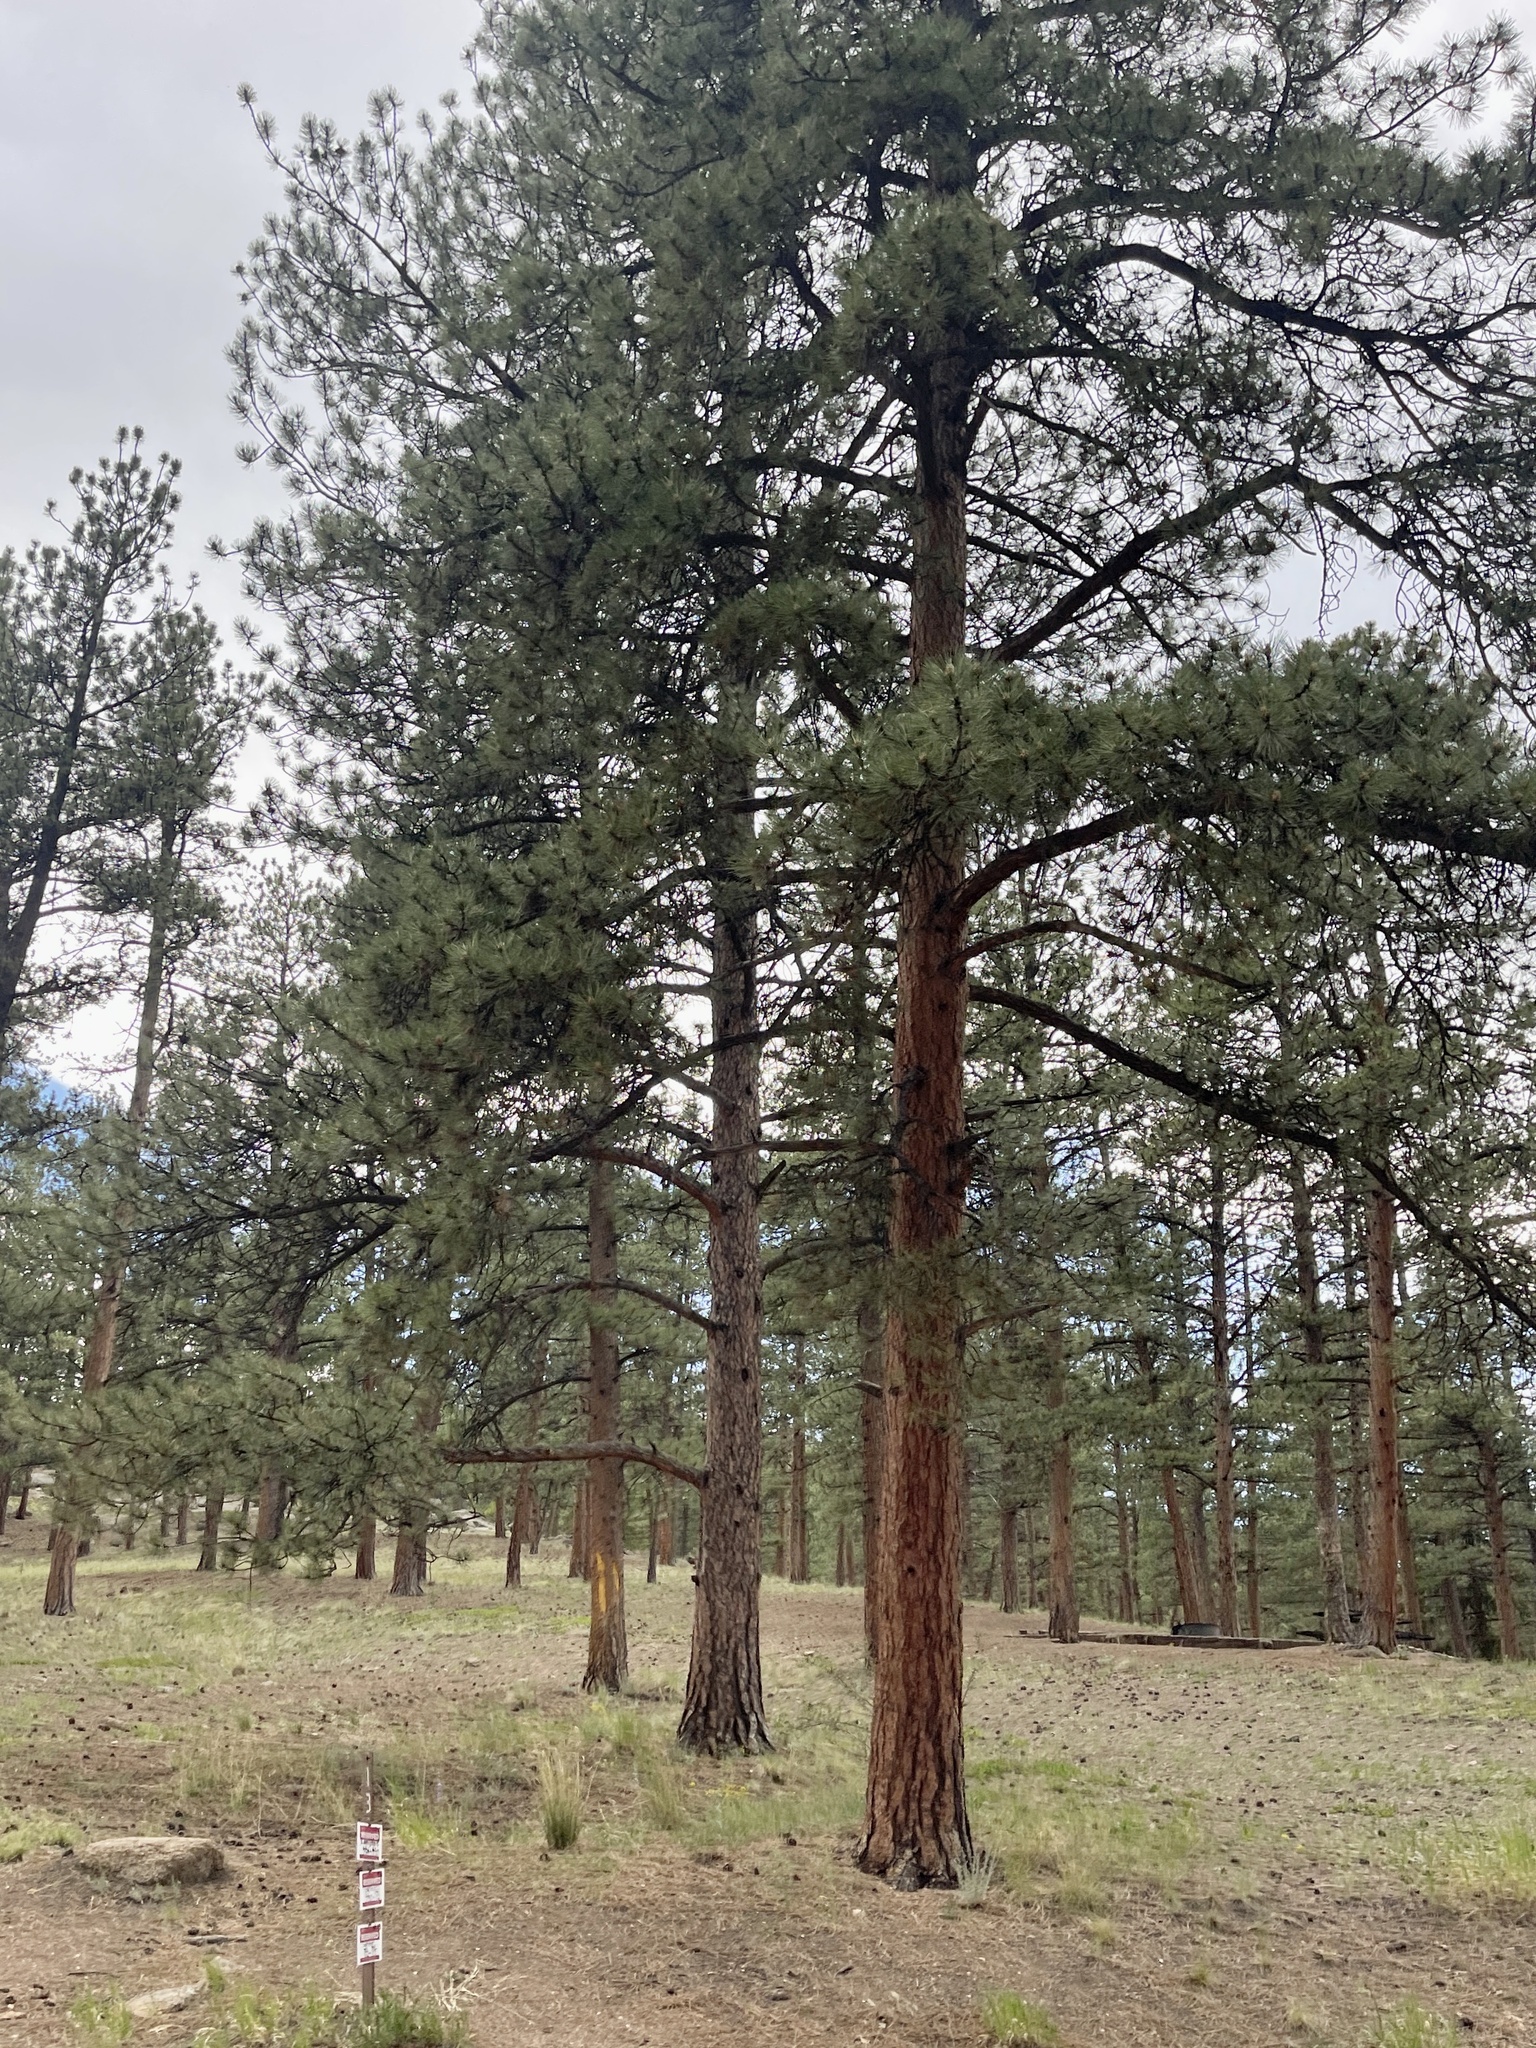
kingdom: Plantae
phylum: Tracheophyta
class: Pinopsida
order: Pinales
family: Pinaceae
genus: Pinus
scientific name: Pinus ponderosa
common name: Western yellow-pine
